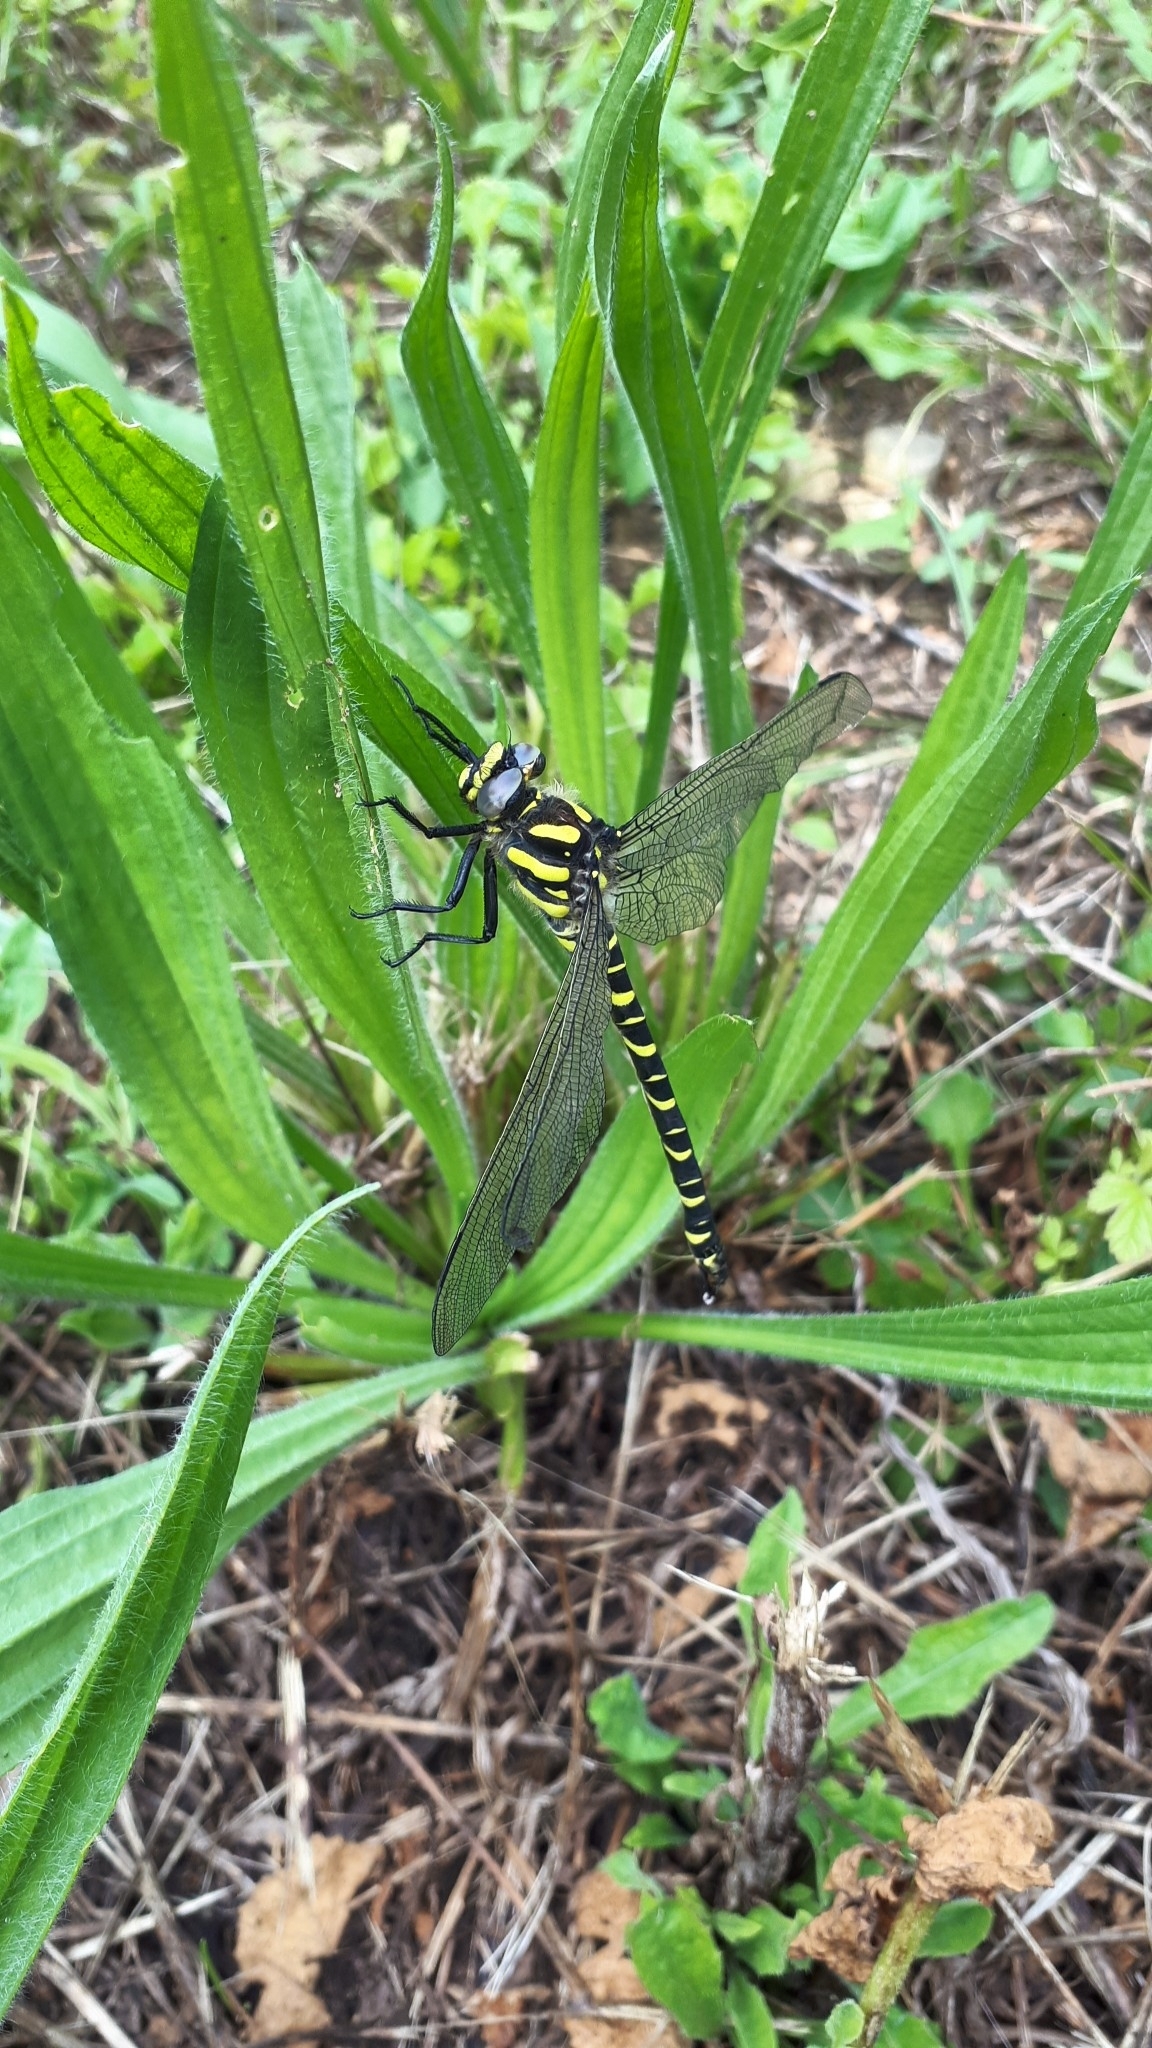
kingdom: Animalia
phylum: Arthropoda
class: Insecta
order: Odonata
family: Cordulegastridae
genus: Cordulegaster
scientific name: Cordulegaster boltonii
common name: Golden-ringed dragonfly
